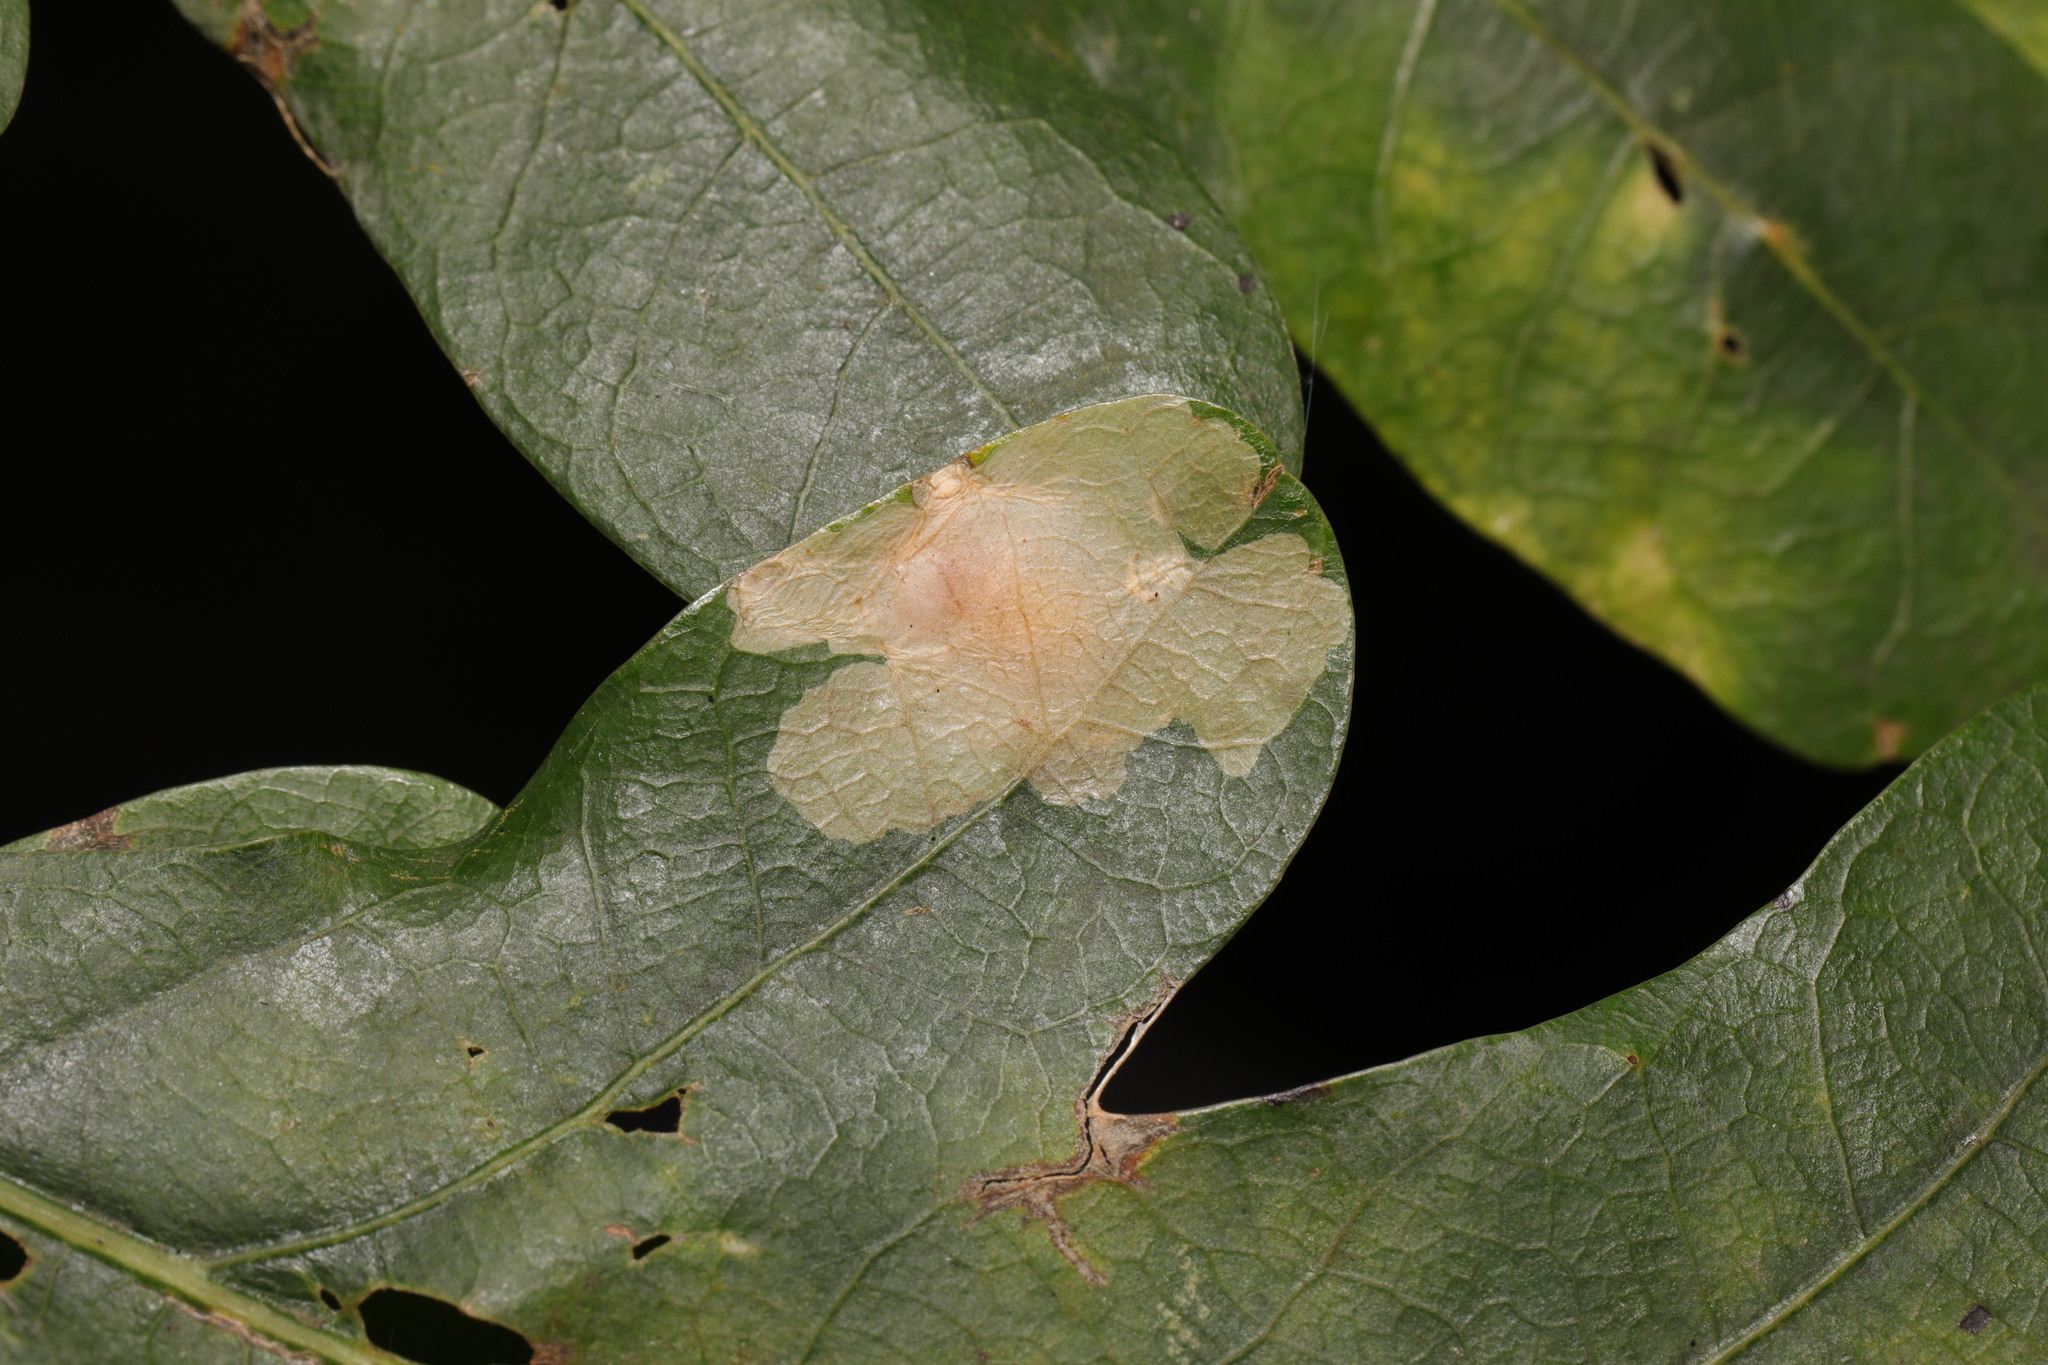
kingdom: Animalia
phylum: Arthropoda
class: Insecta
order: Lepidoptera
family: Tischeriidae
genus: Tischeria
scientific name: Tischeria ekebladella
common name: Oak carl
